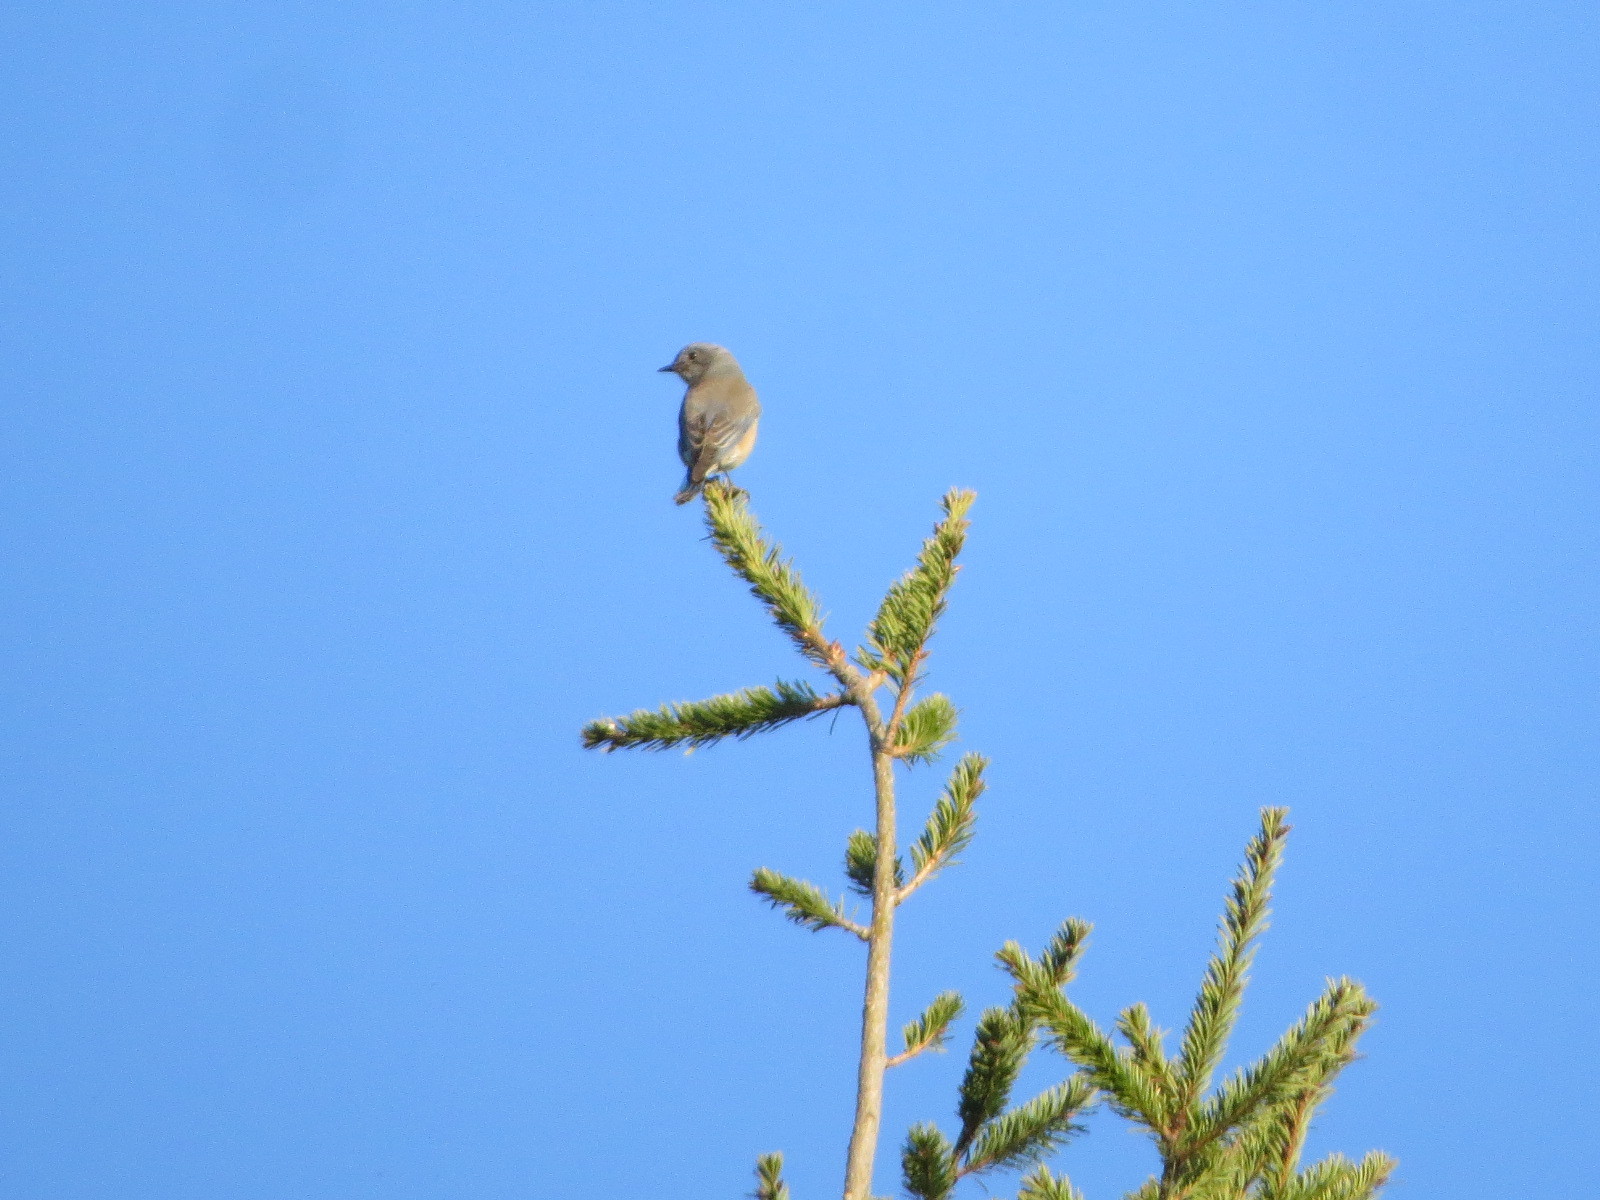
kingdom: Animalia
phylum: Chordata
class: Aves
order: Passeriformes
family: Turdidae
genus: Sialia
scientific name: Sialia mexicana
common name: Western bluebird
